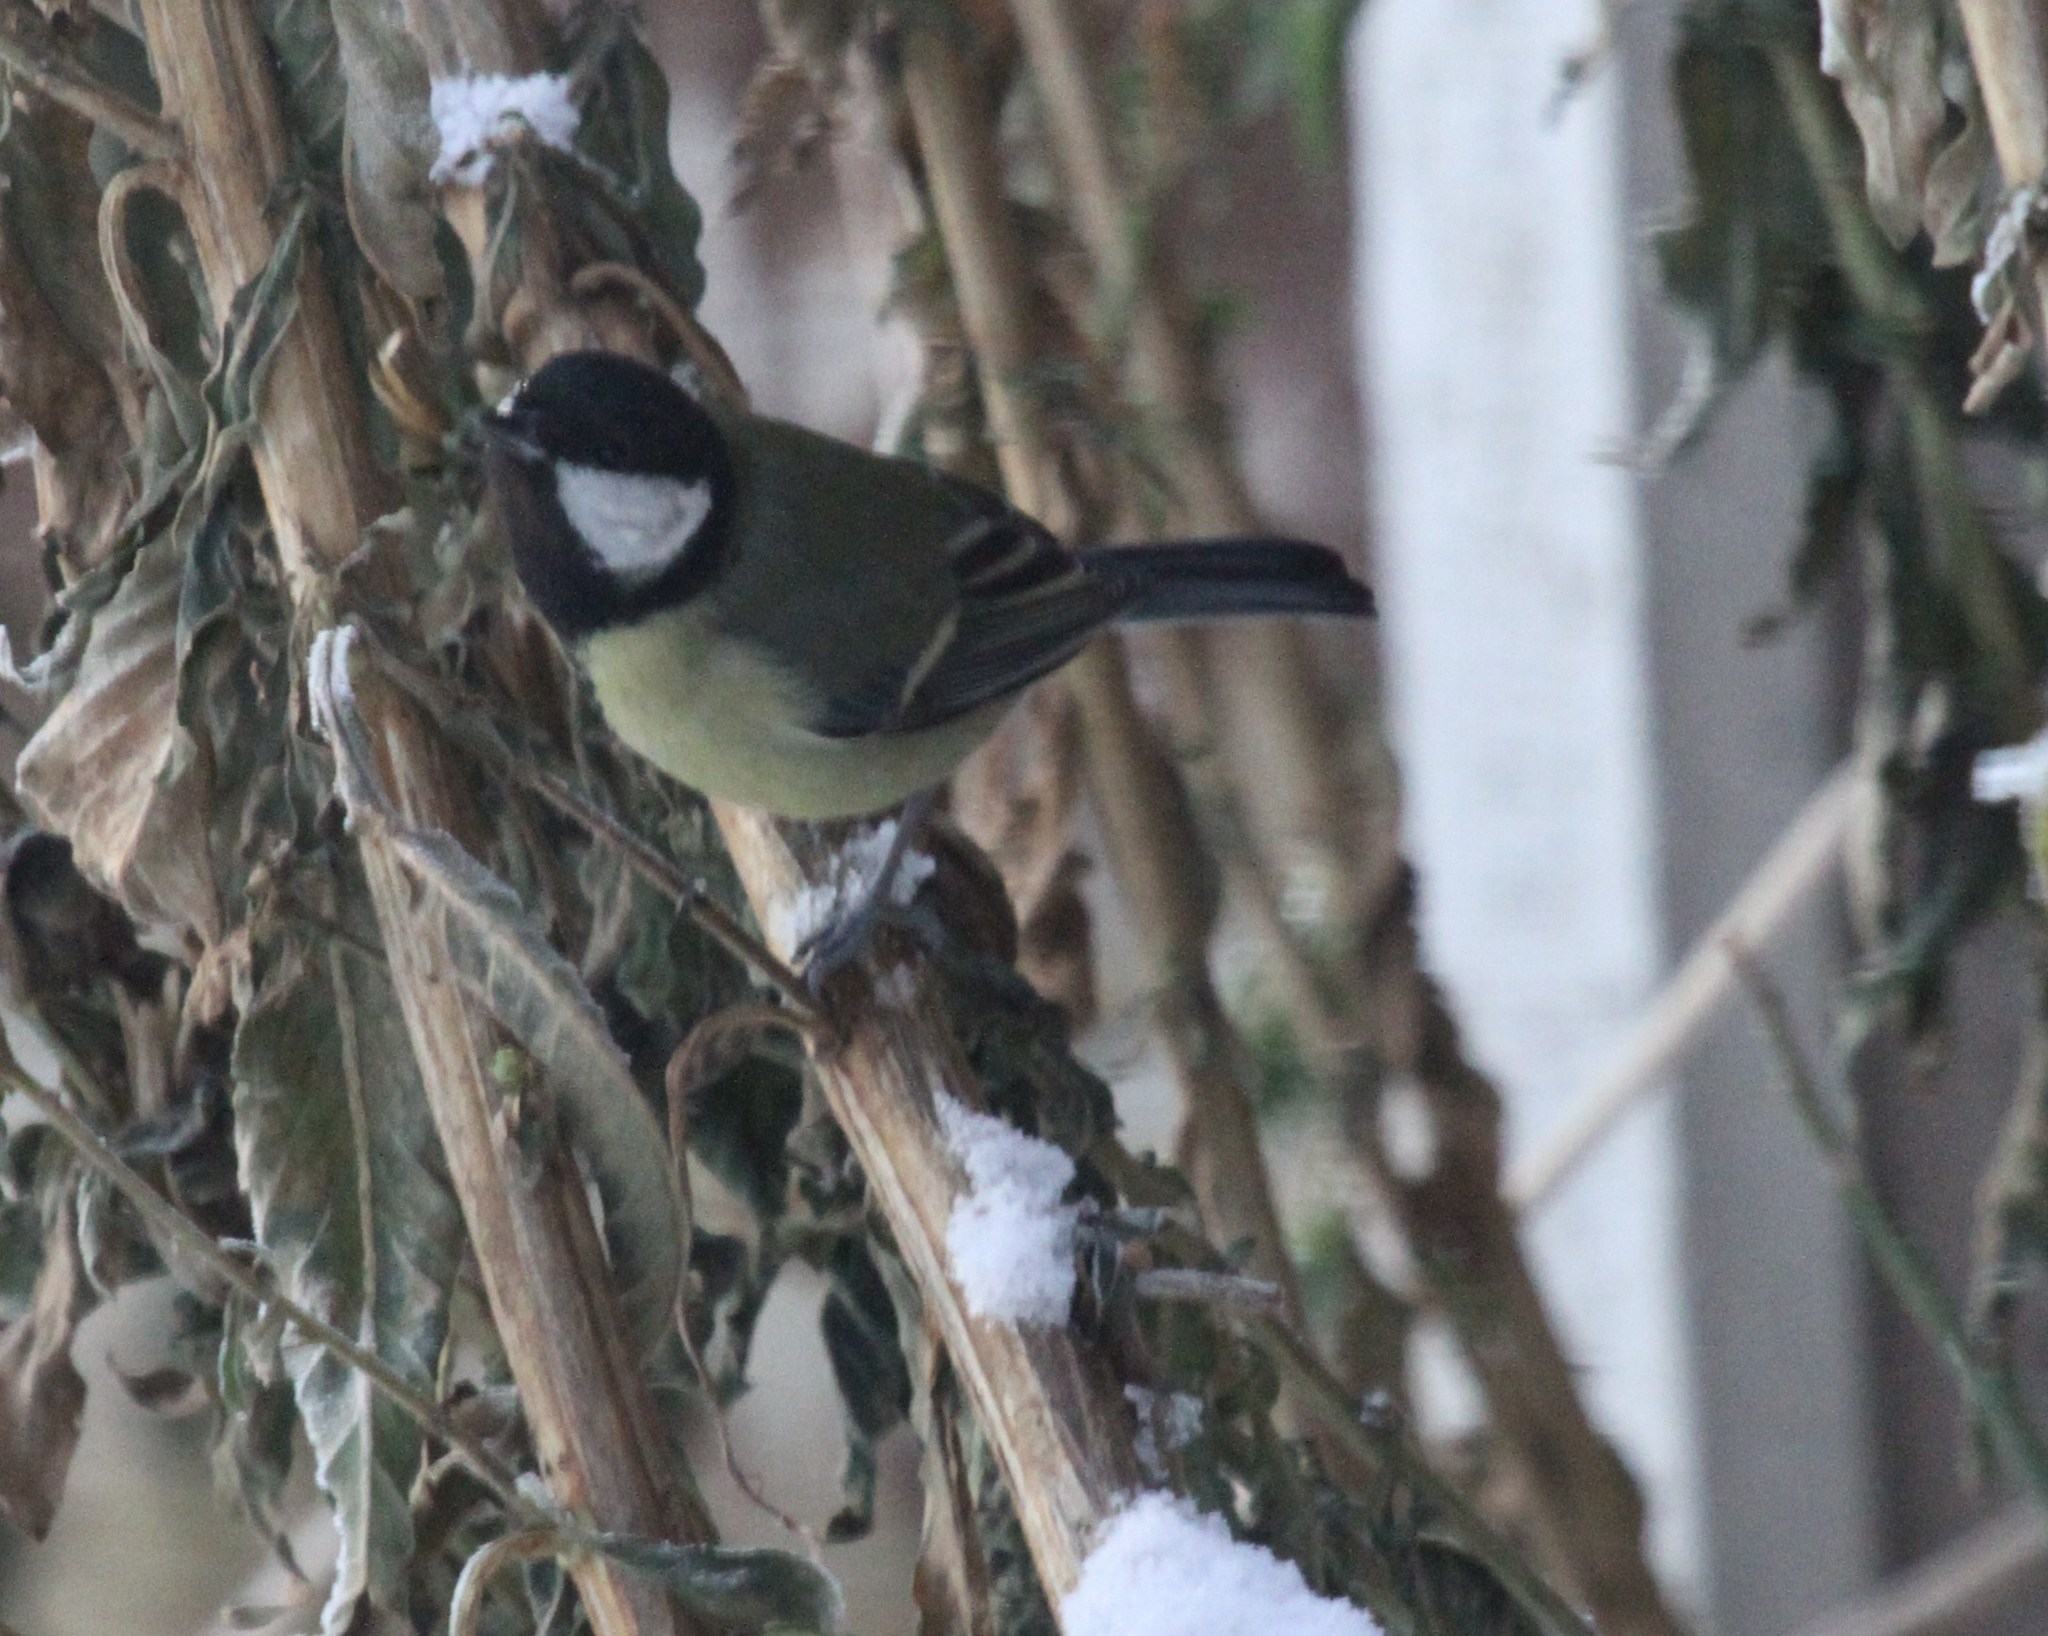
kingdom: Animalia
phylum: Chordata
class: Aves
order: Passeriformes
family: Paridae
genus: Parus
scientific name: Parus major
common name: Great tit
